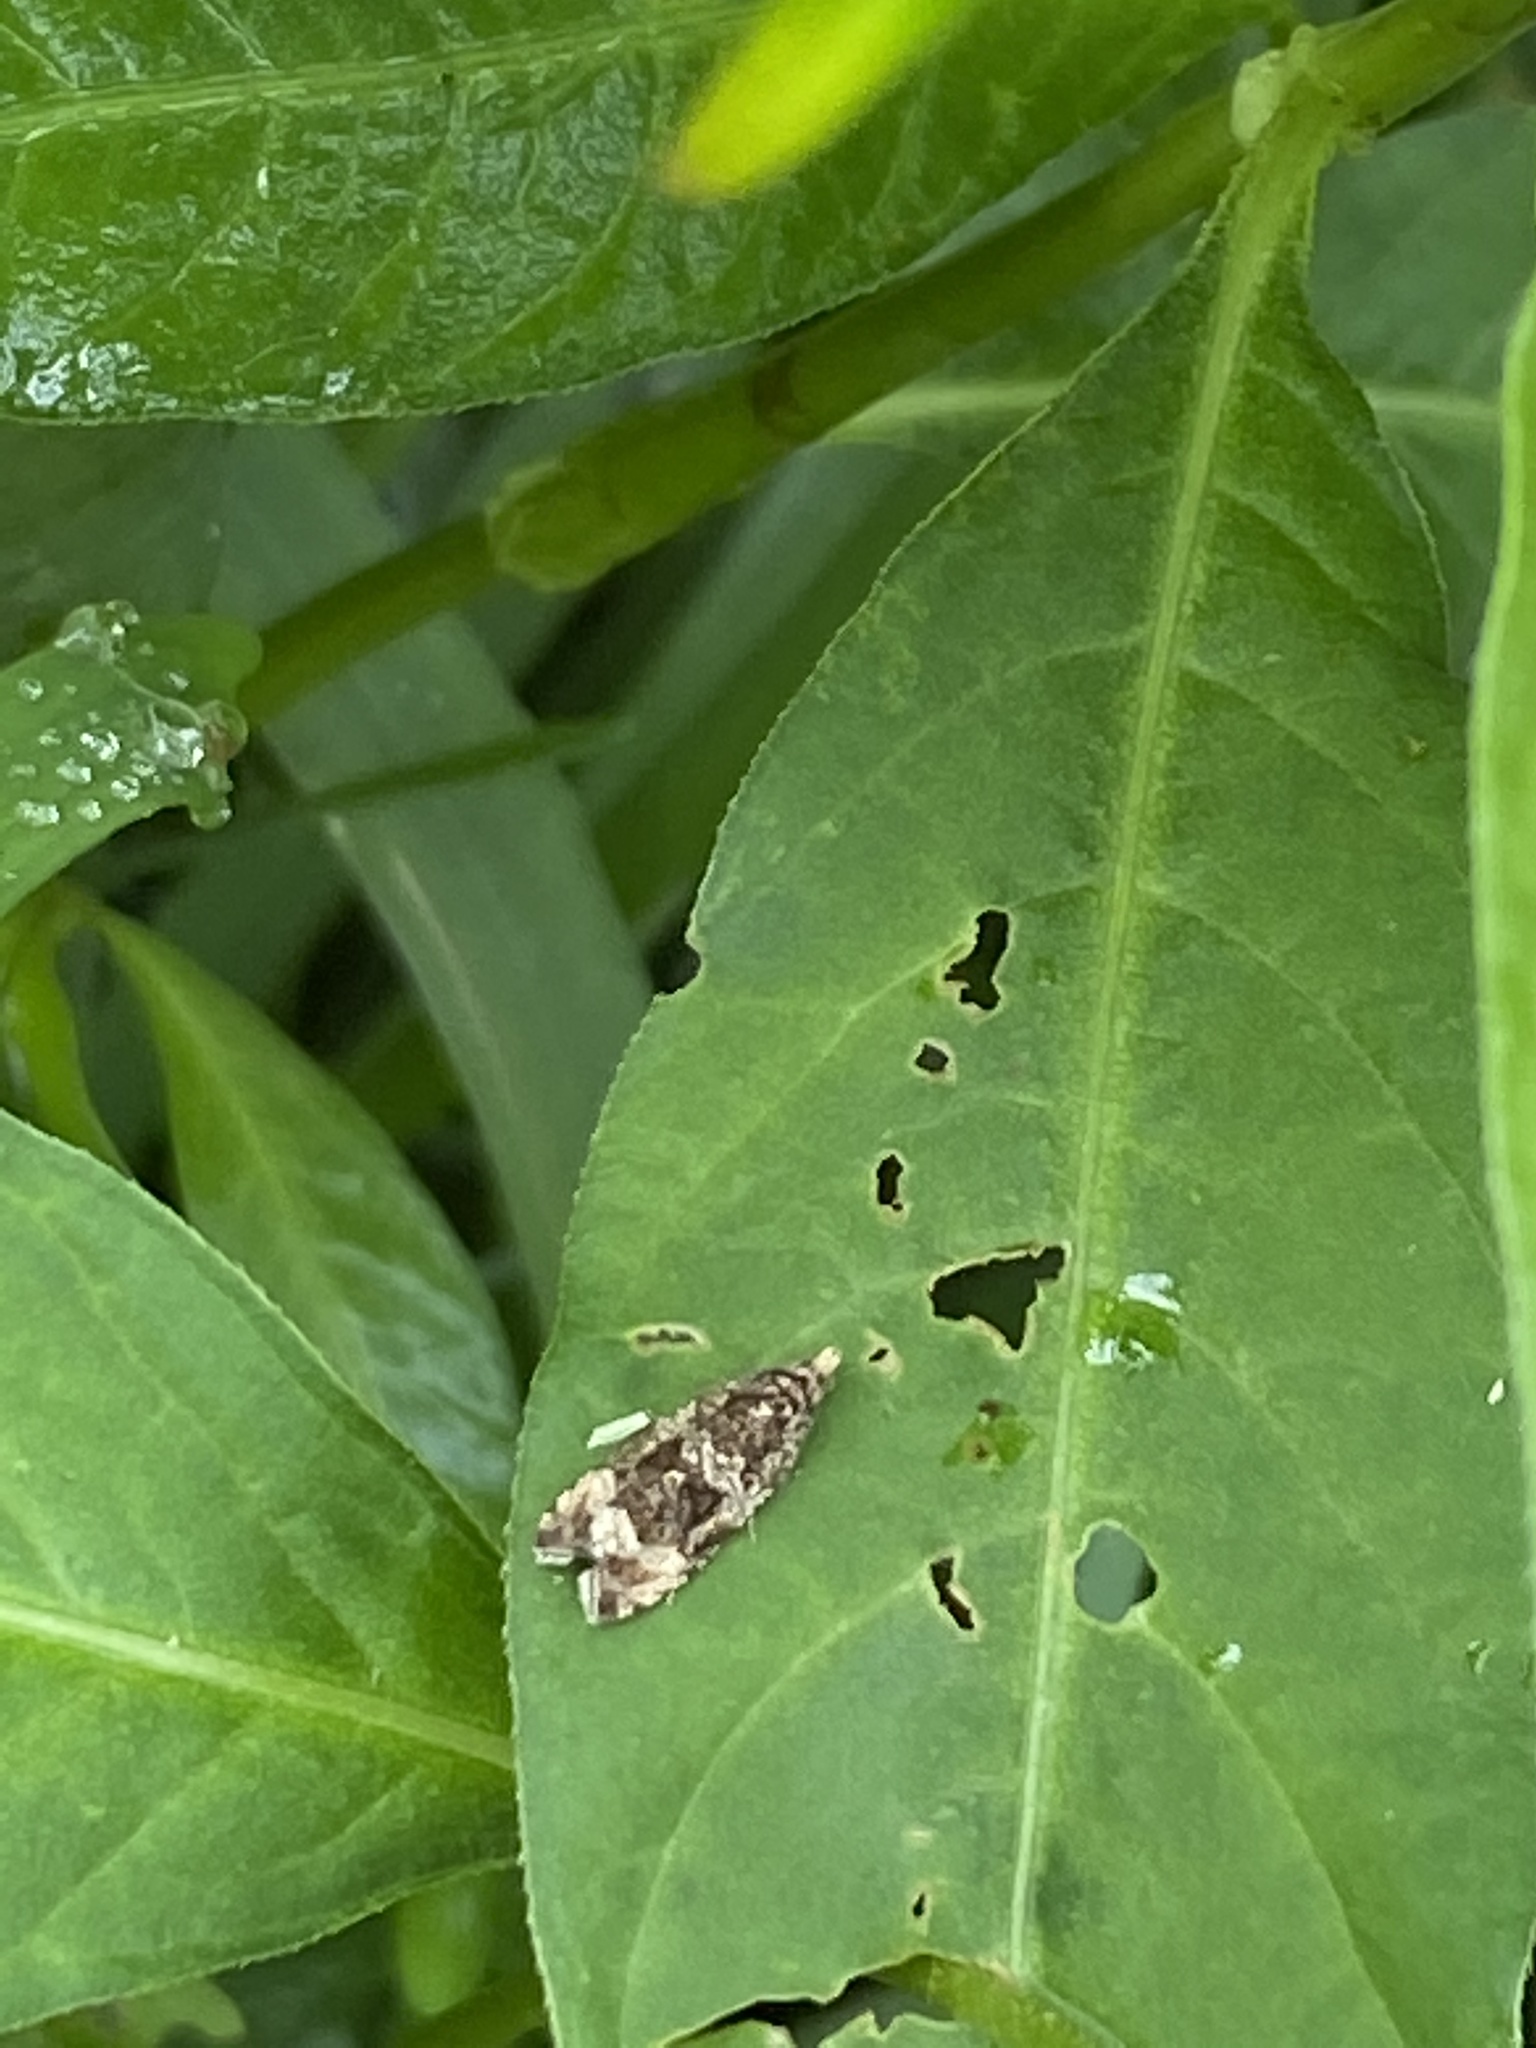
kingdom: Animalia
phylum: Arthropoda
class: Insecta
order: Lepidoptera
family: Tortricidae
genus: Syricoris
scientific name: Syricoris lacunana
